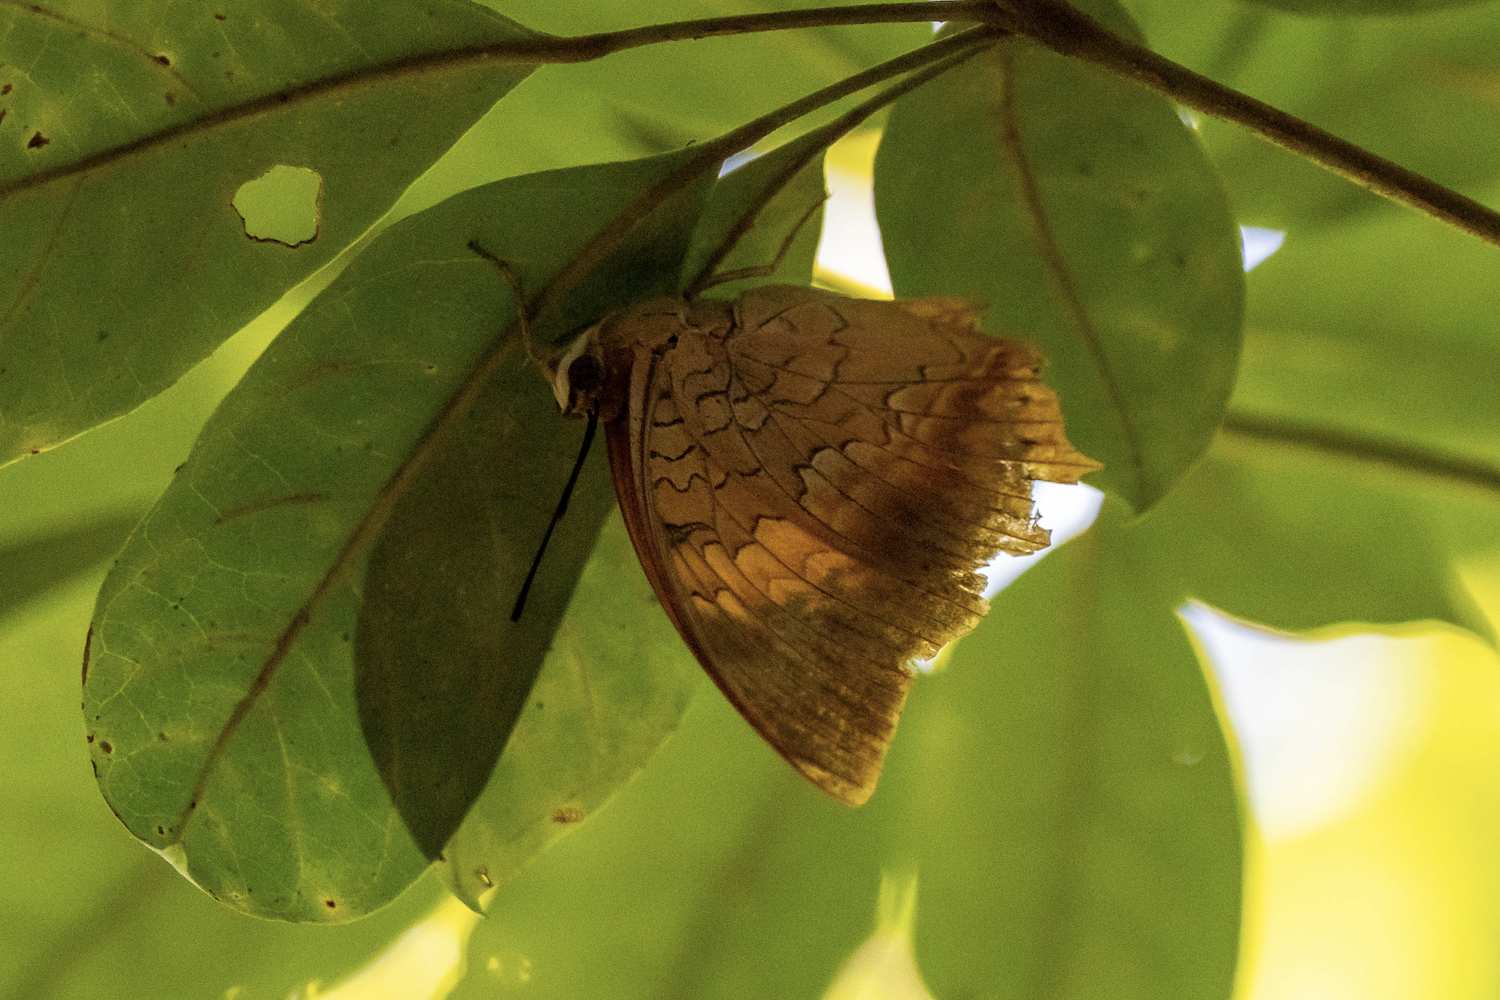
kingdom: Animalia
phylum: Arthropoda
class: Insecta
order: Lepidoptera
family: Nymphalidae
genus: Charaxes
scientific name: Charaxes bernardus
